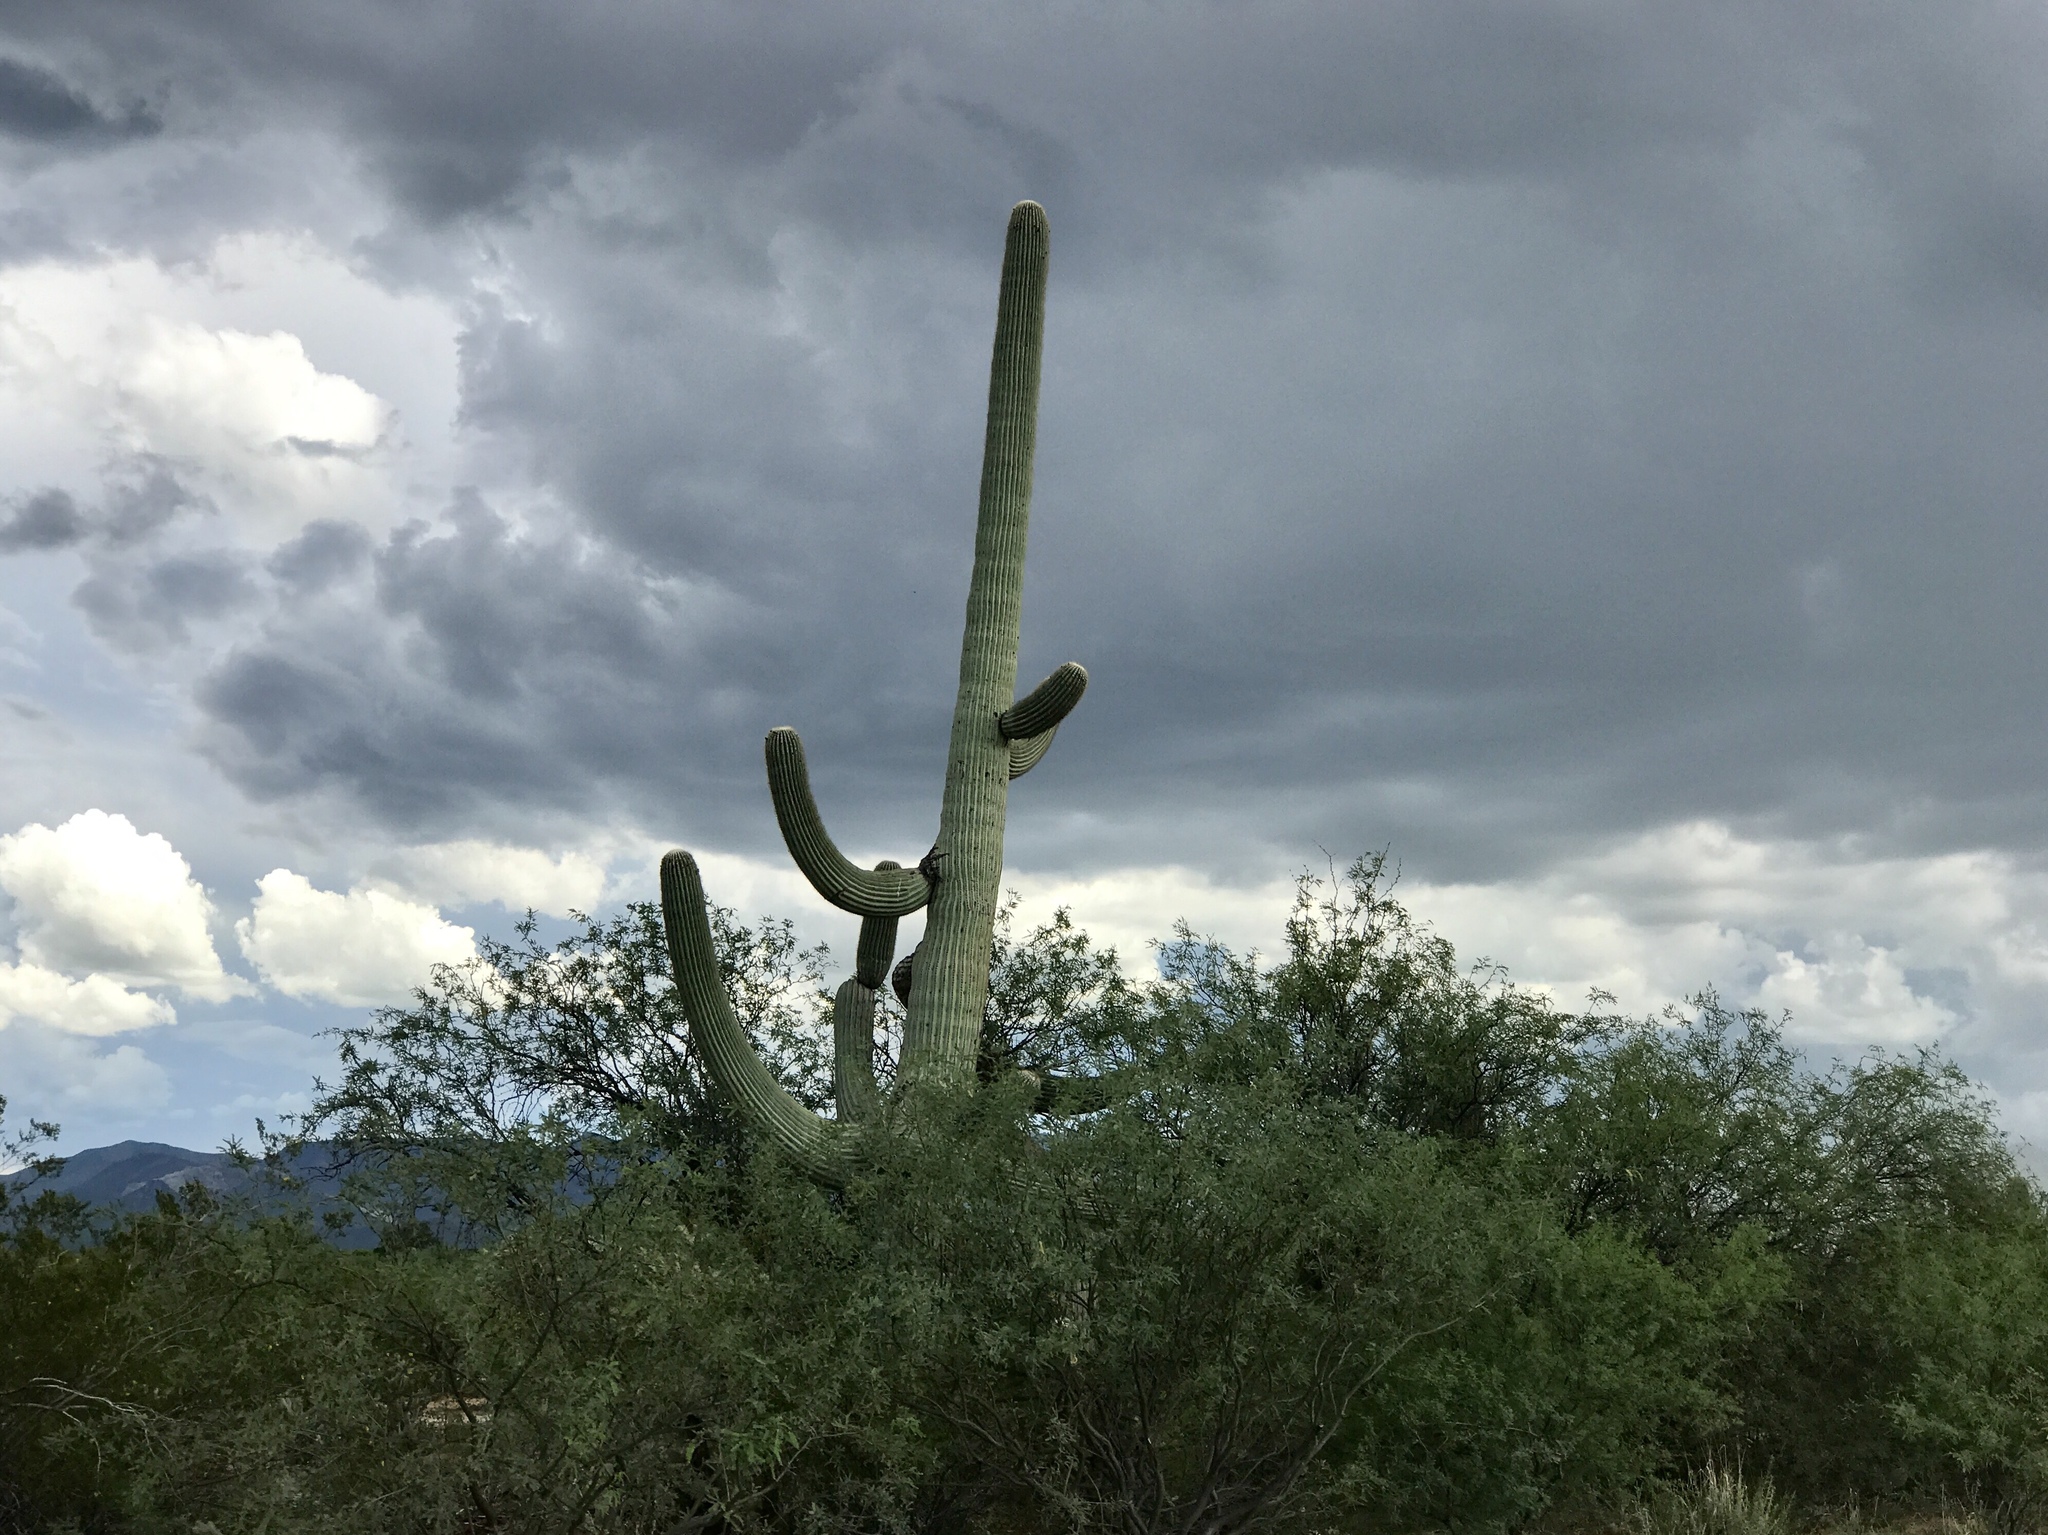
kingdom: Plantae
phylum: Tracheophyta
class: Magnoliopsida
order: Caryophyllales
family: Cactaceae
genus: Carnegiea
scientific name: Carnegiea gigantea
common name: Saguaro
